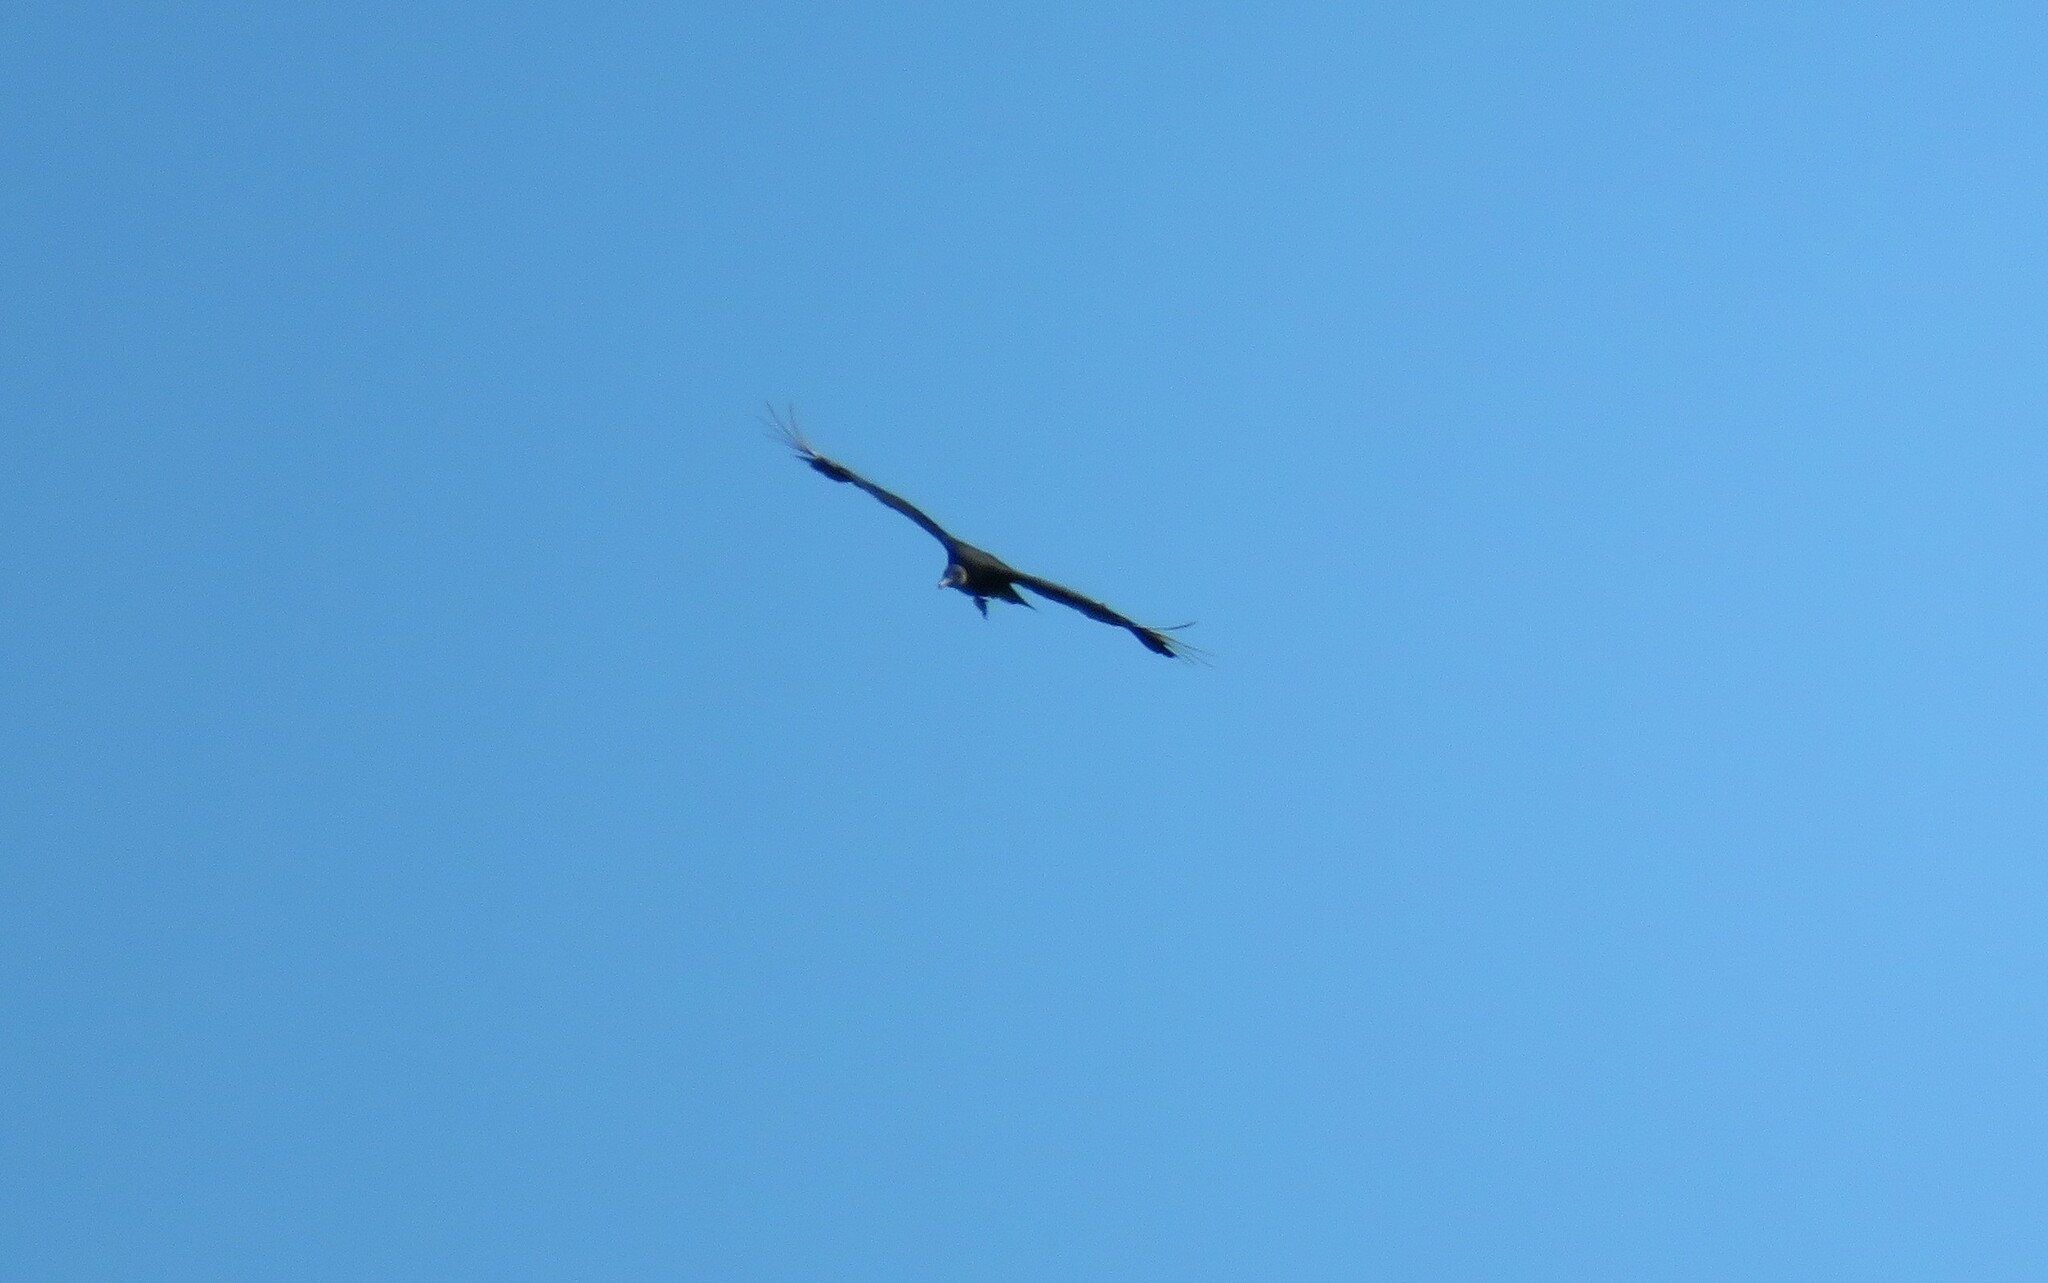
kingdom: Animalia
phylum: Chordata
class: Aves
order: Accipitriformes
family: Cathartidae
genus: Coragyps
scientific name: Coragyps atratus
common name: Black vulture
